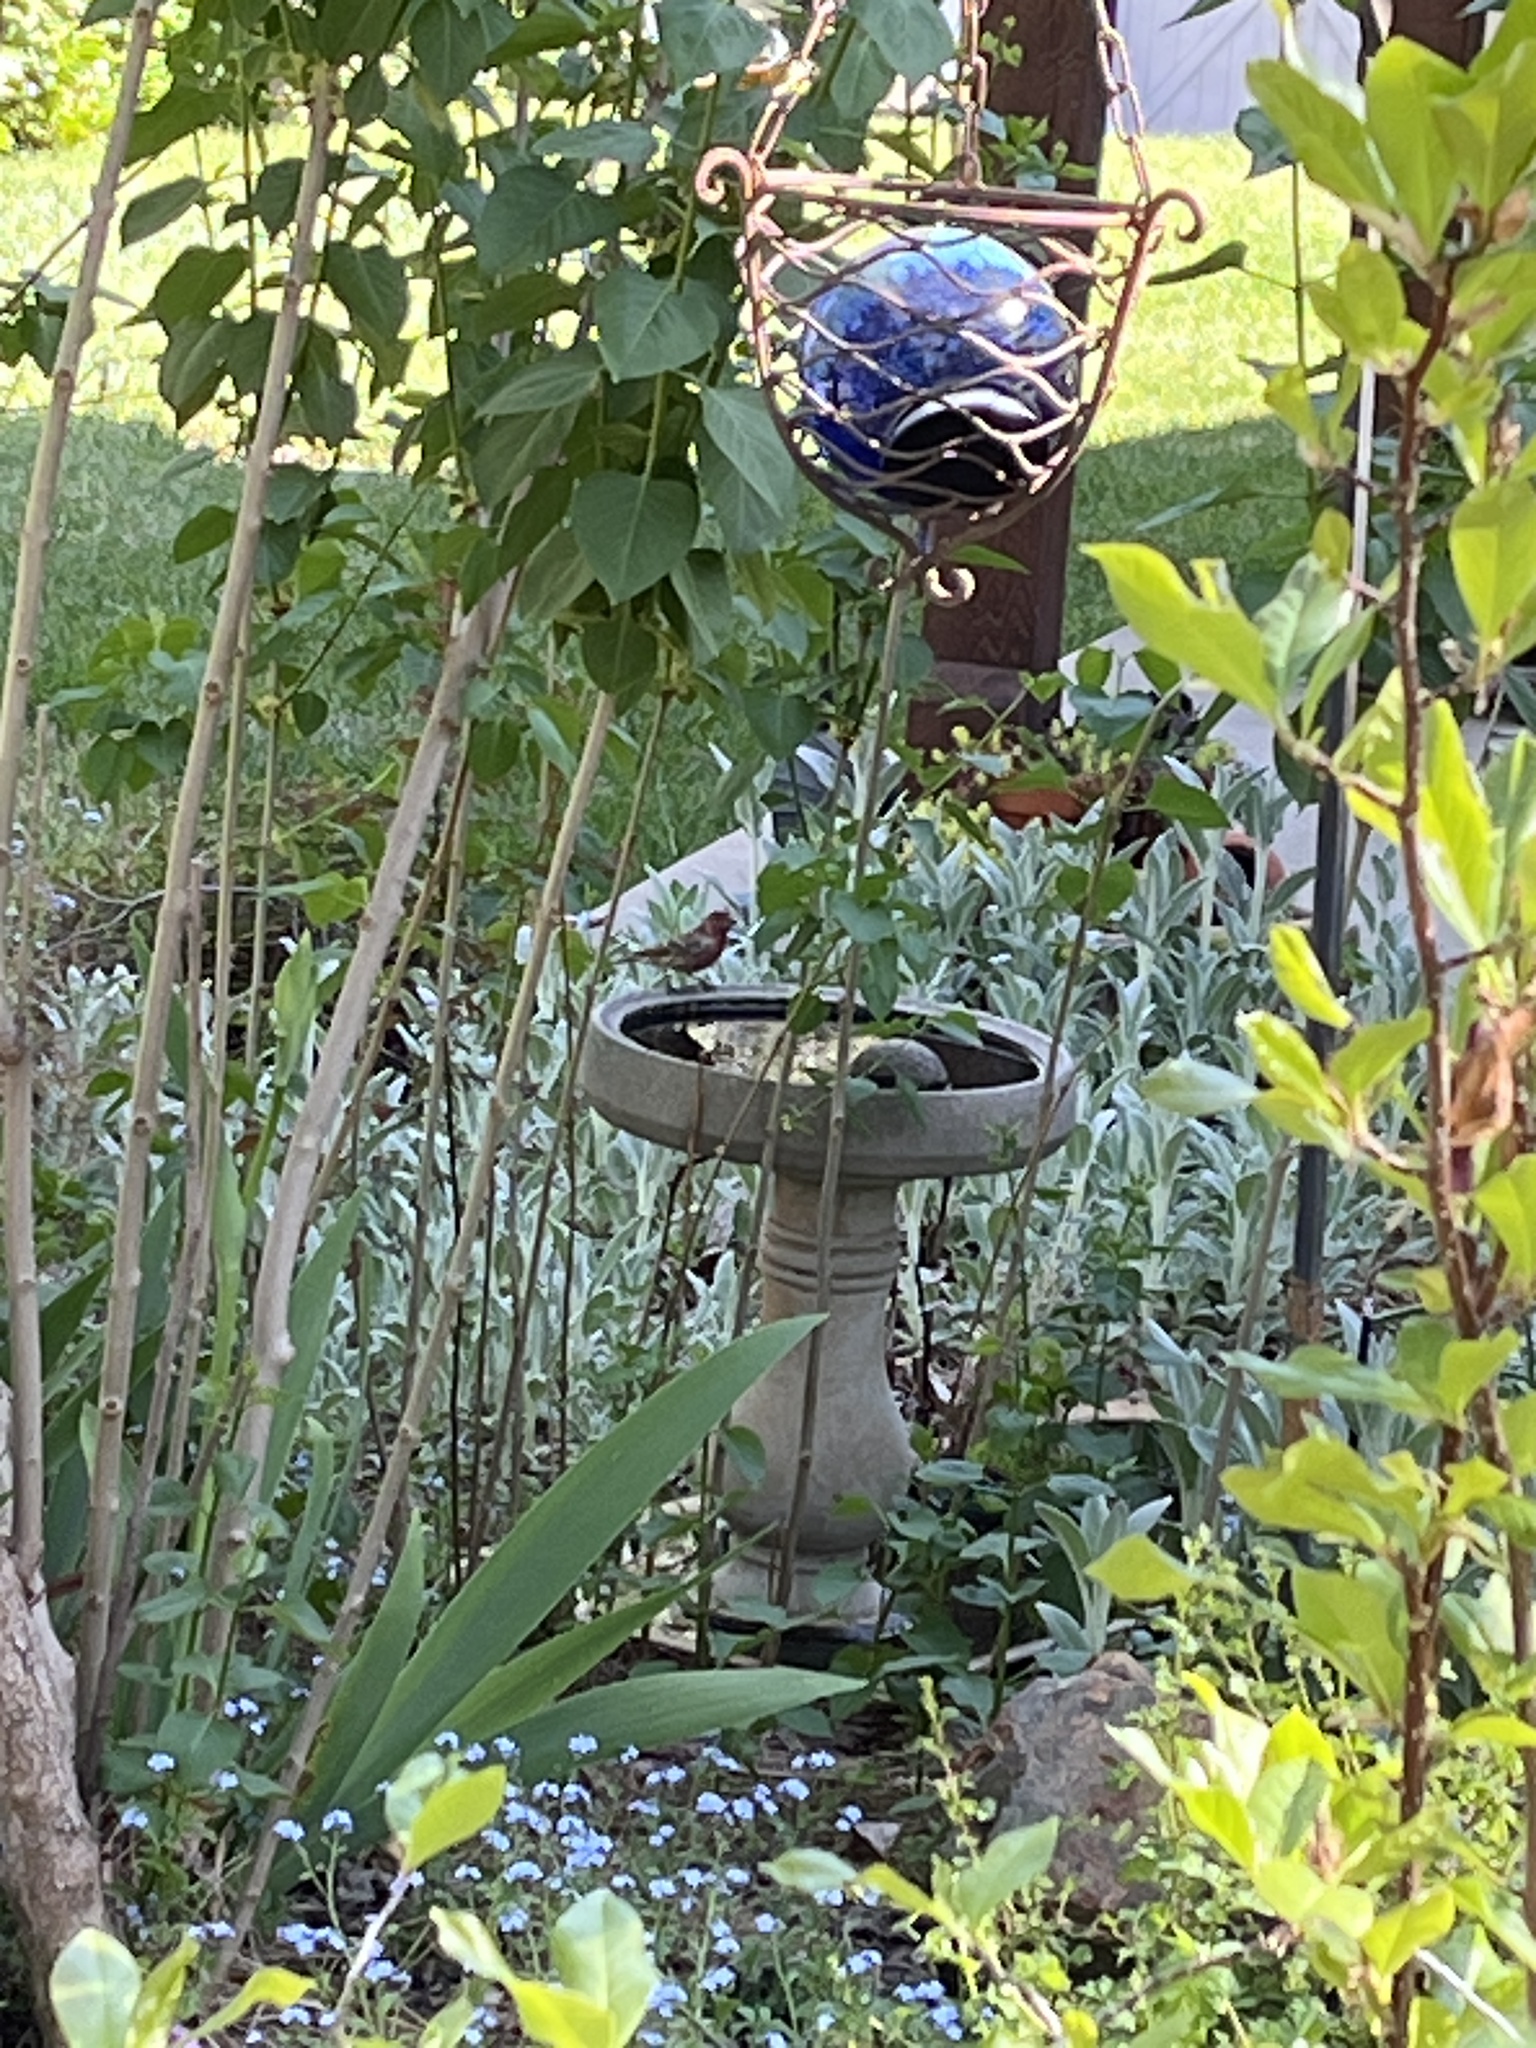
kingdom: Animalia
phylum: Chordata
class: Aves
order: Passeriformes
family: Fringillidae
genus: Haemorhous
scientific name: Haemorhous mexicanus
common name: House finch
